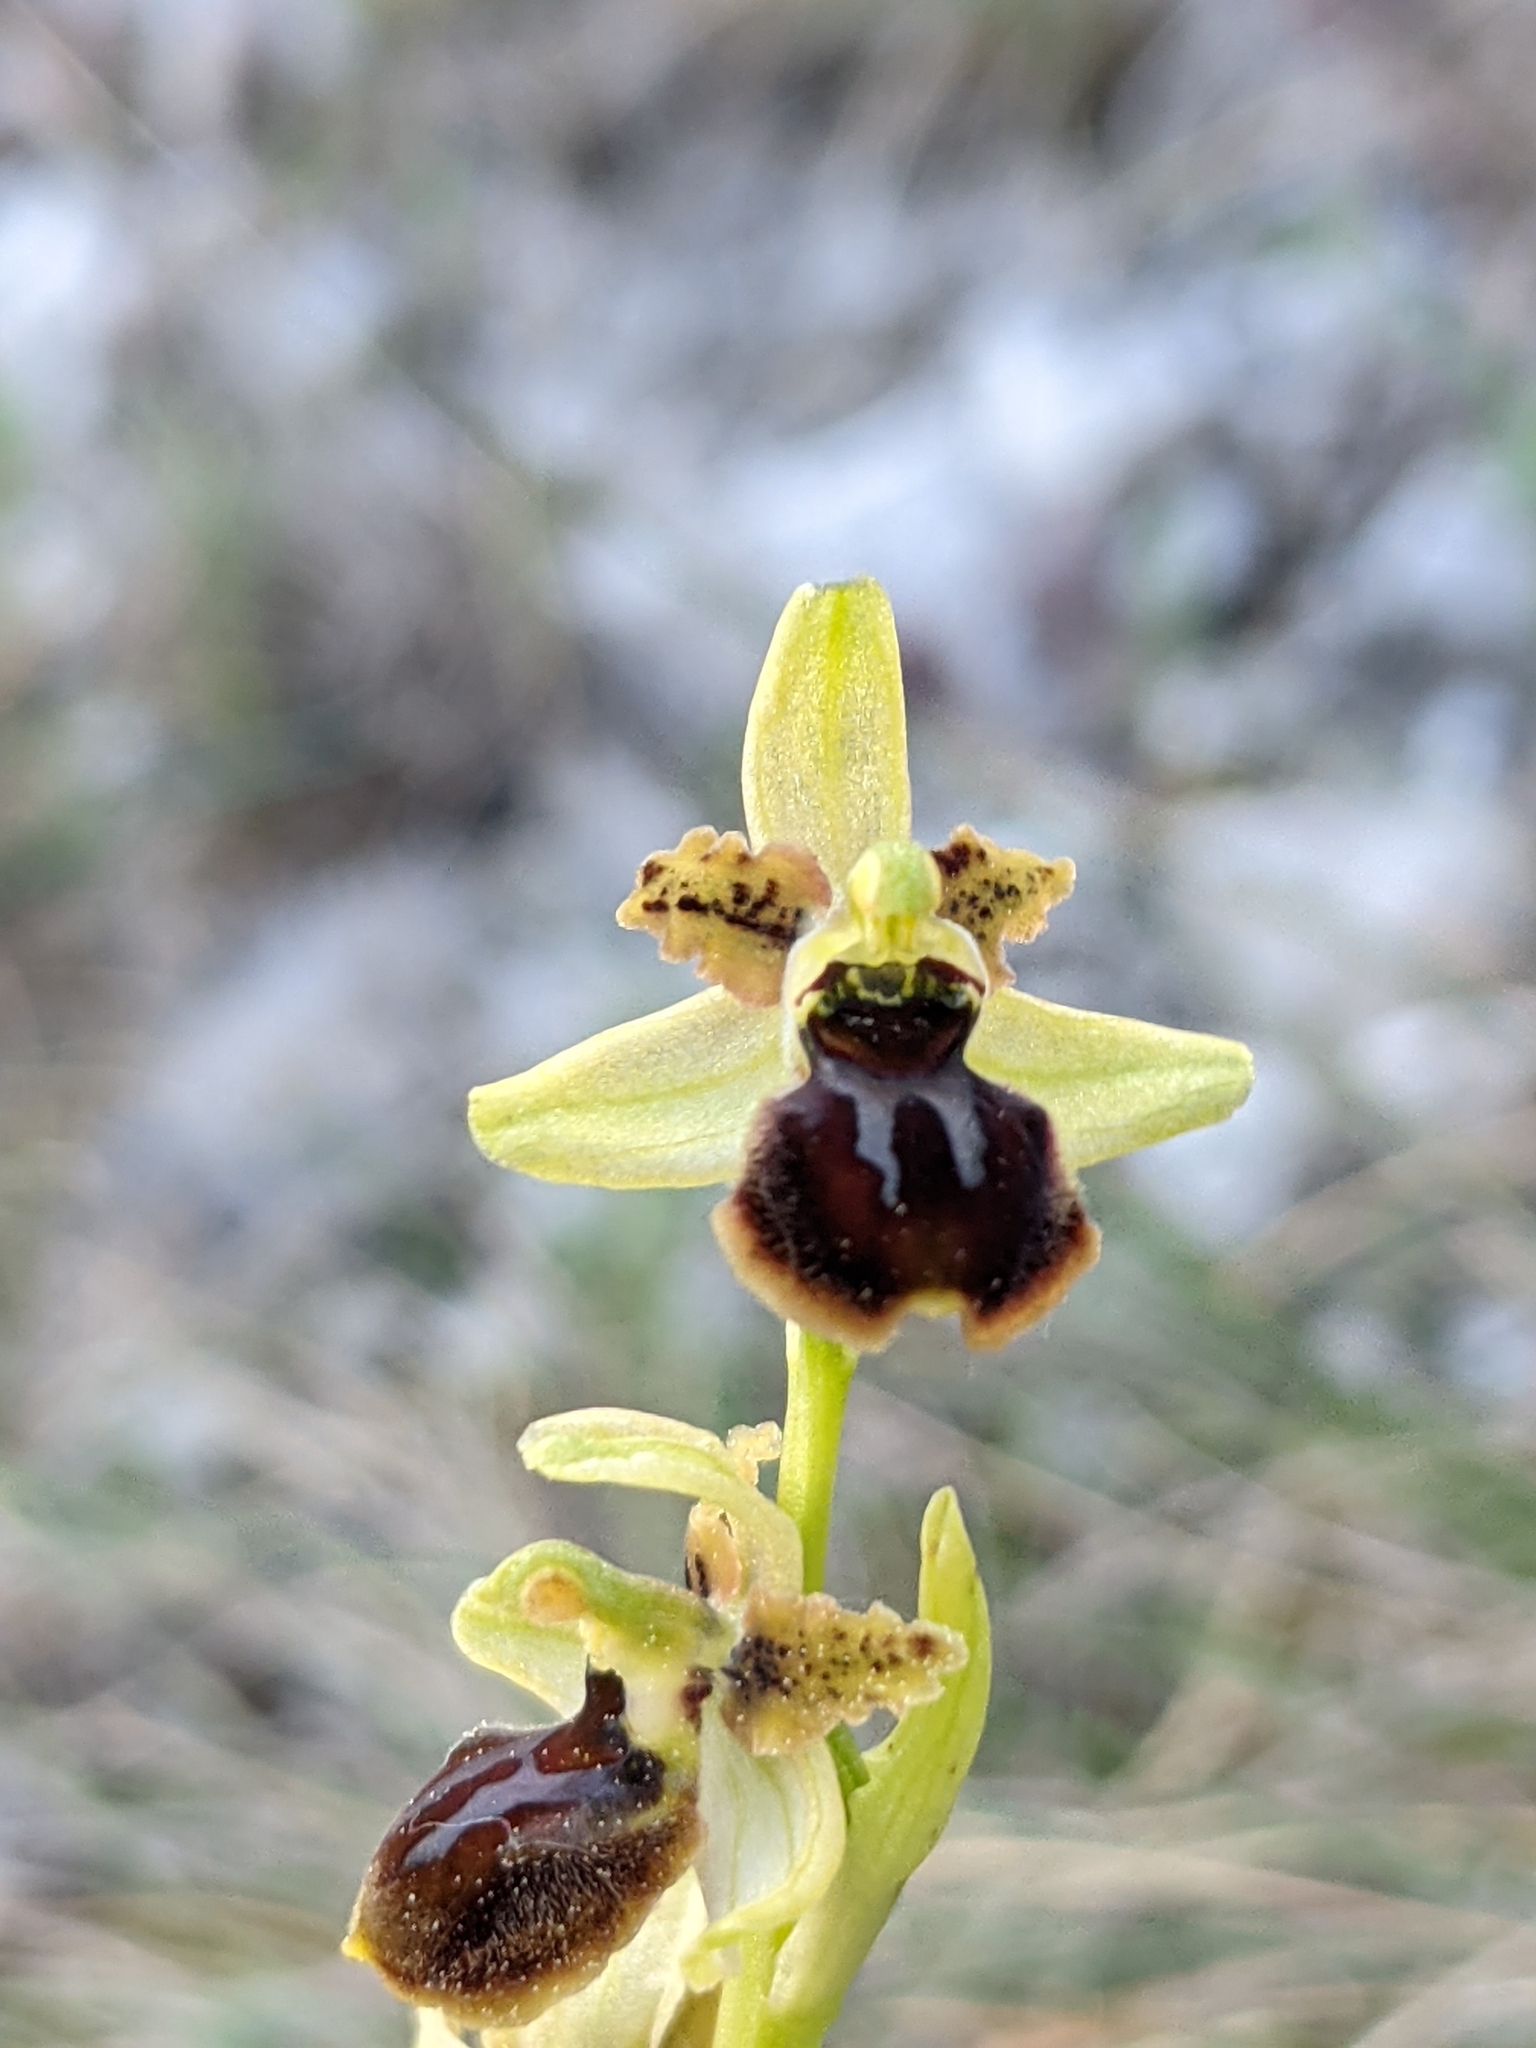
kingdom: Plantae
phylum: Tracheophyta
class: Liliopsida
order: Asparagales
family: Orchidaceae
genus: Ophrys
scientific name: Ophrys sphegodes
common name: Early spider-orchid
